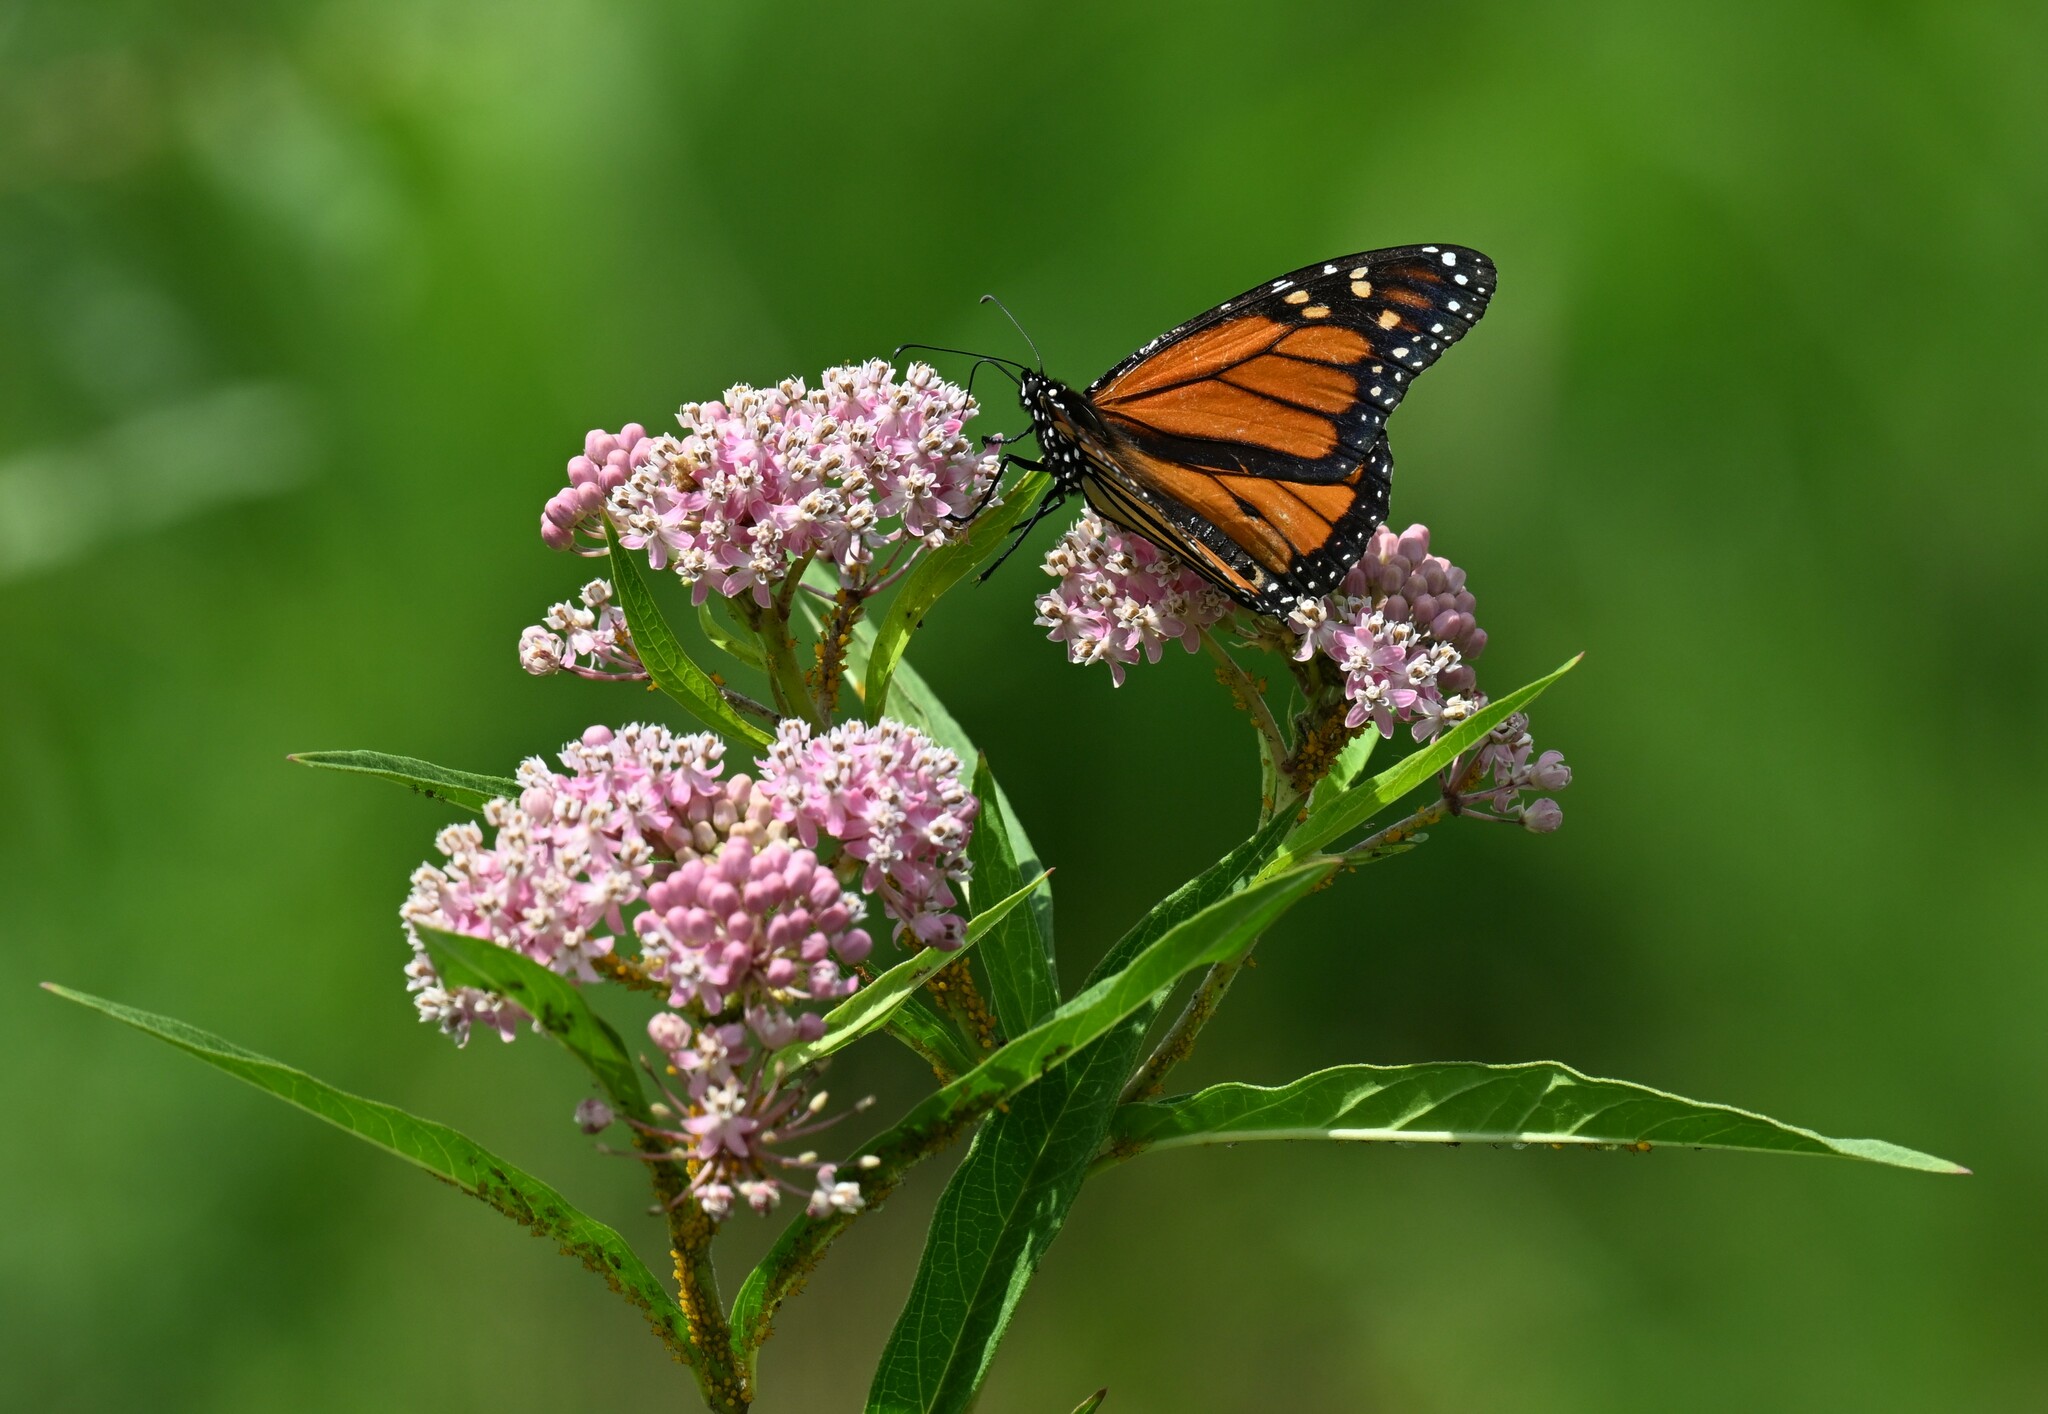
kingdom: Animalia
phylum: Arthropoda
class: Insecta
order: Lepidoptera
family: Nymphalidae
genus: Danaus
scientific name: Danaus plexippus
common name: Monarch
